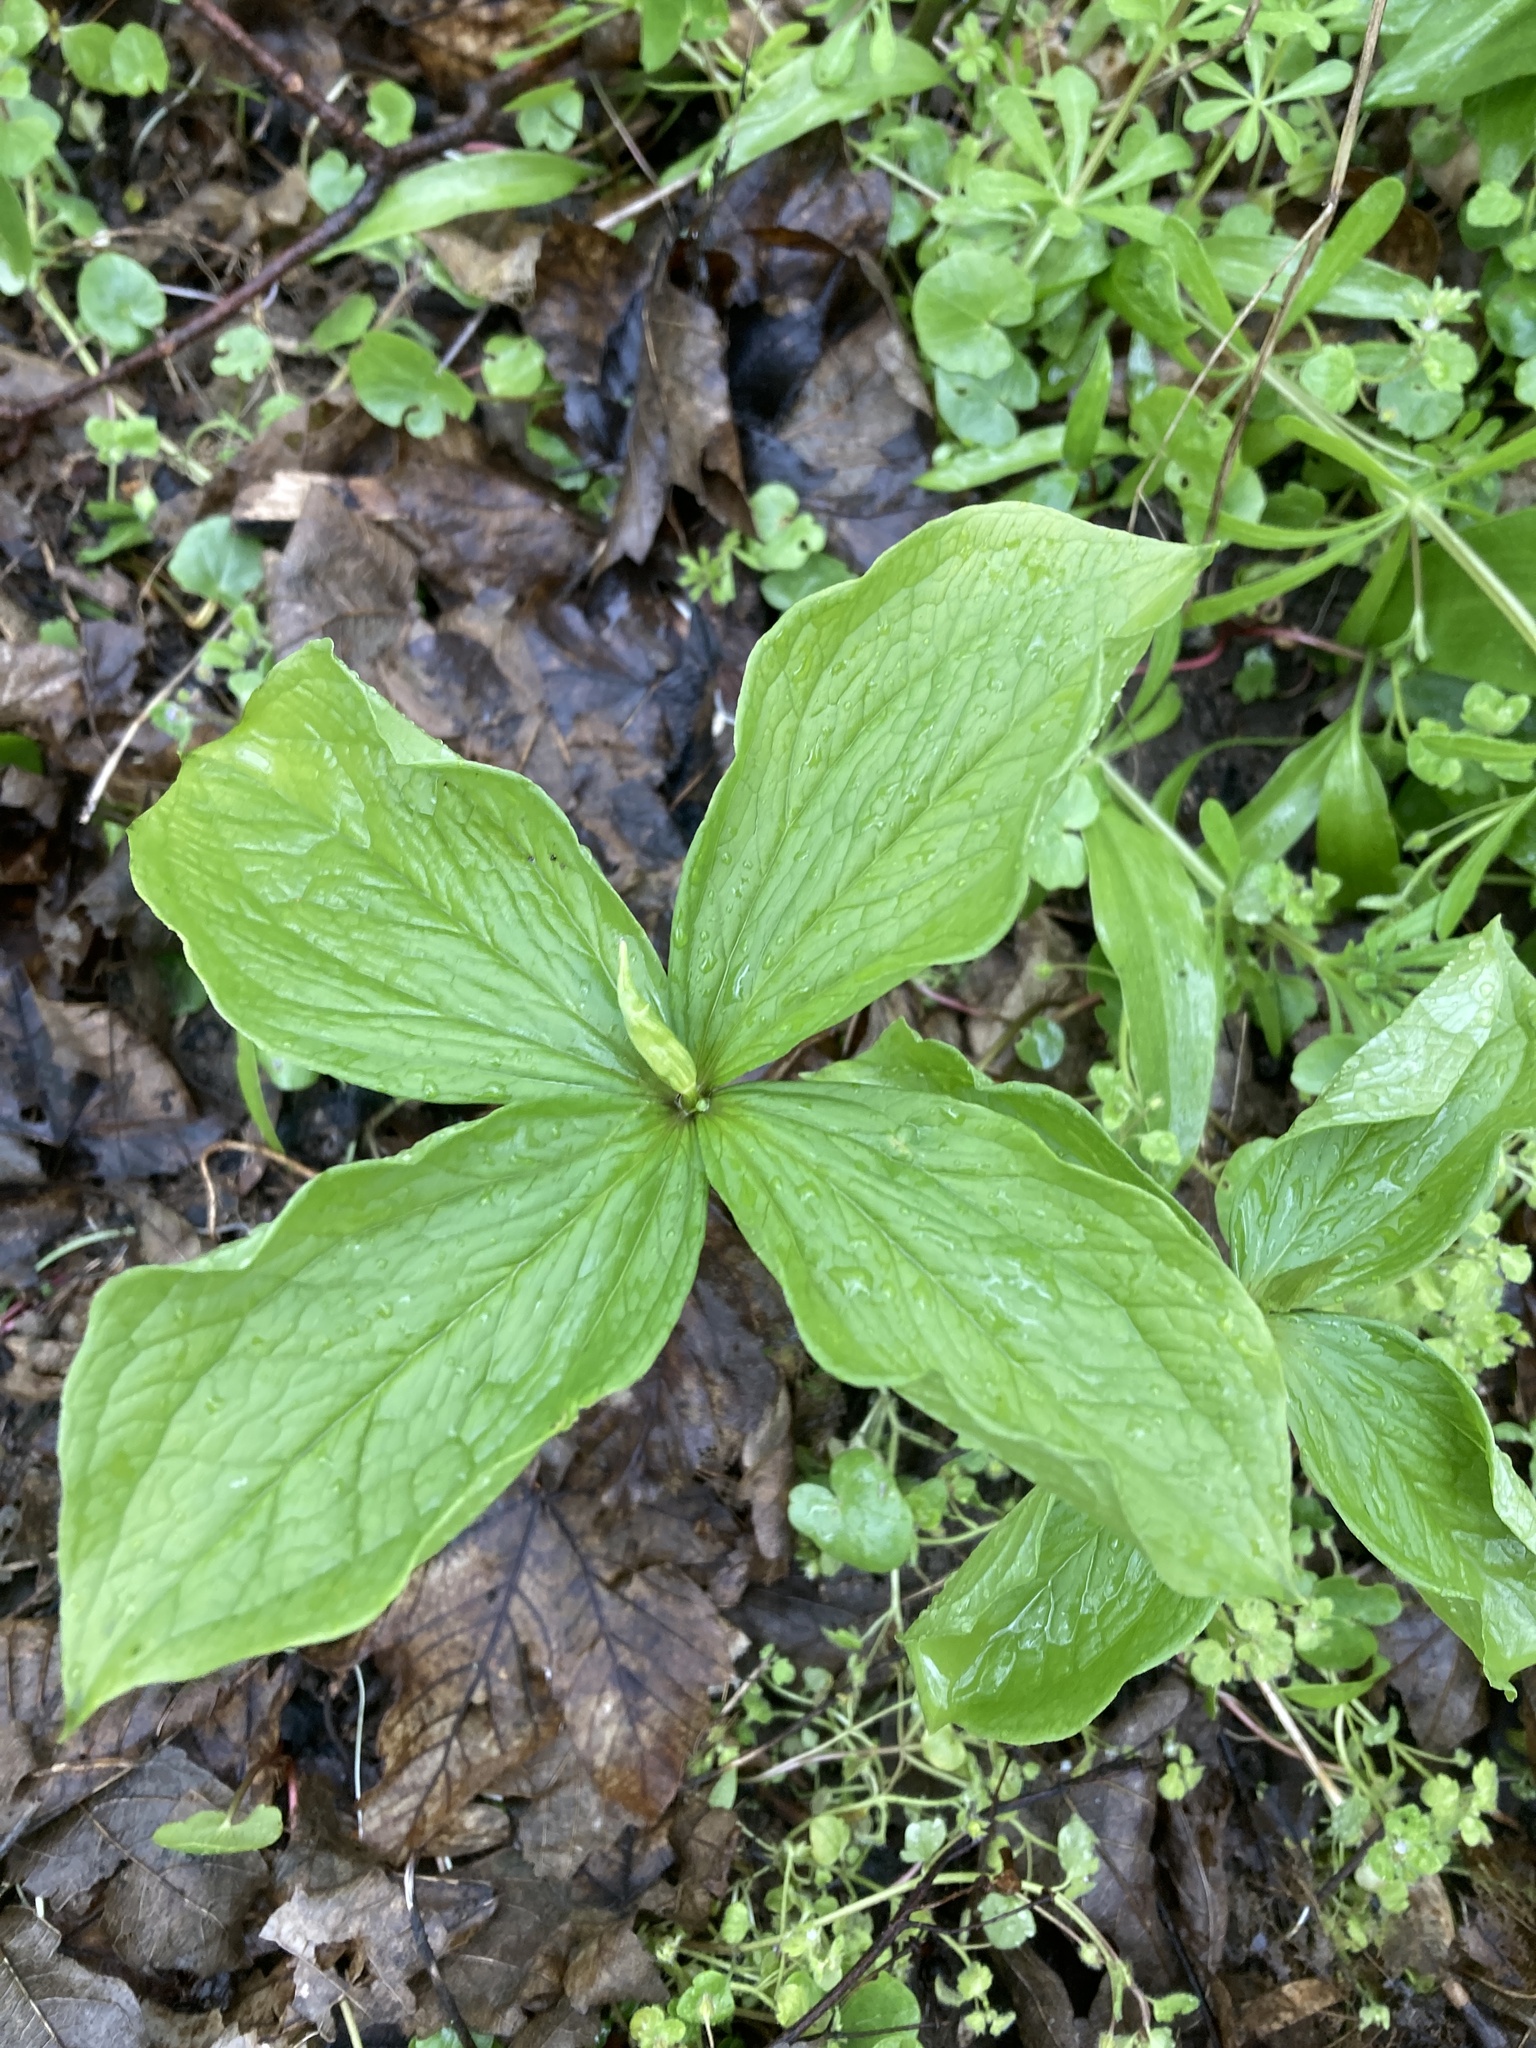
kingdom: Plantae
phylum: Tracheophyta
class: Liliopsida
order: Liliales
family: Melanthiaceae
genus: Paris
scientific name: Paris quadrifolia
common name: Herb-paris
